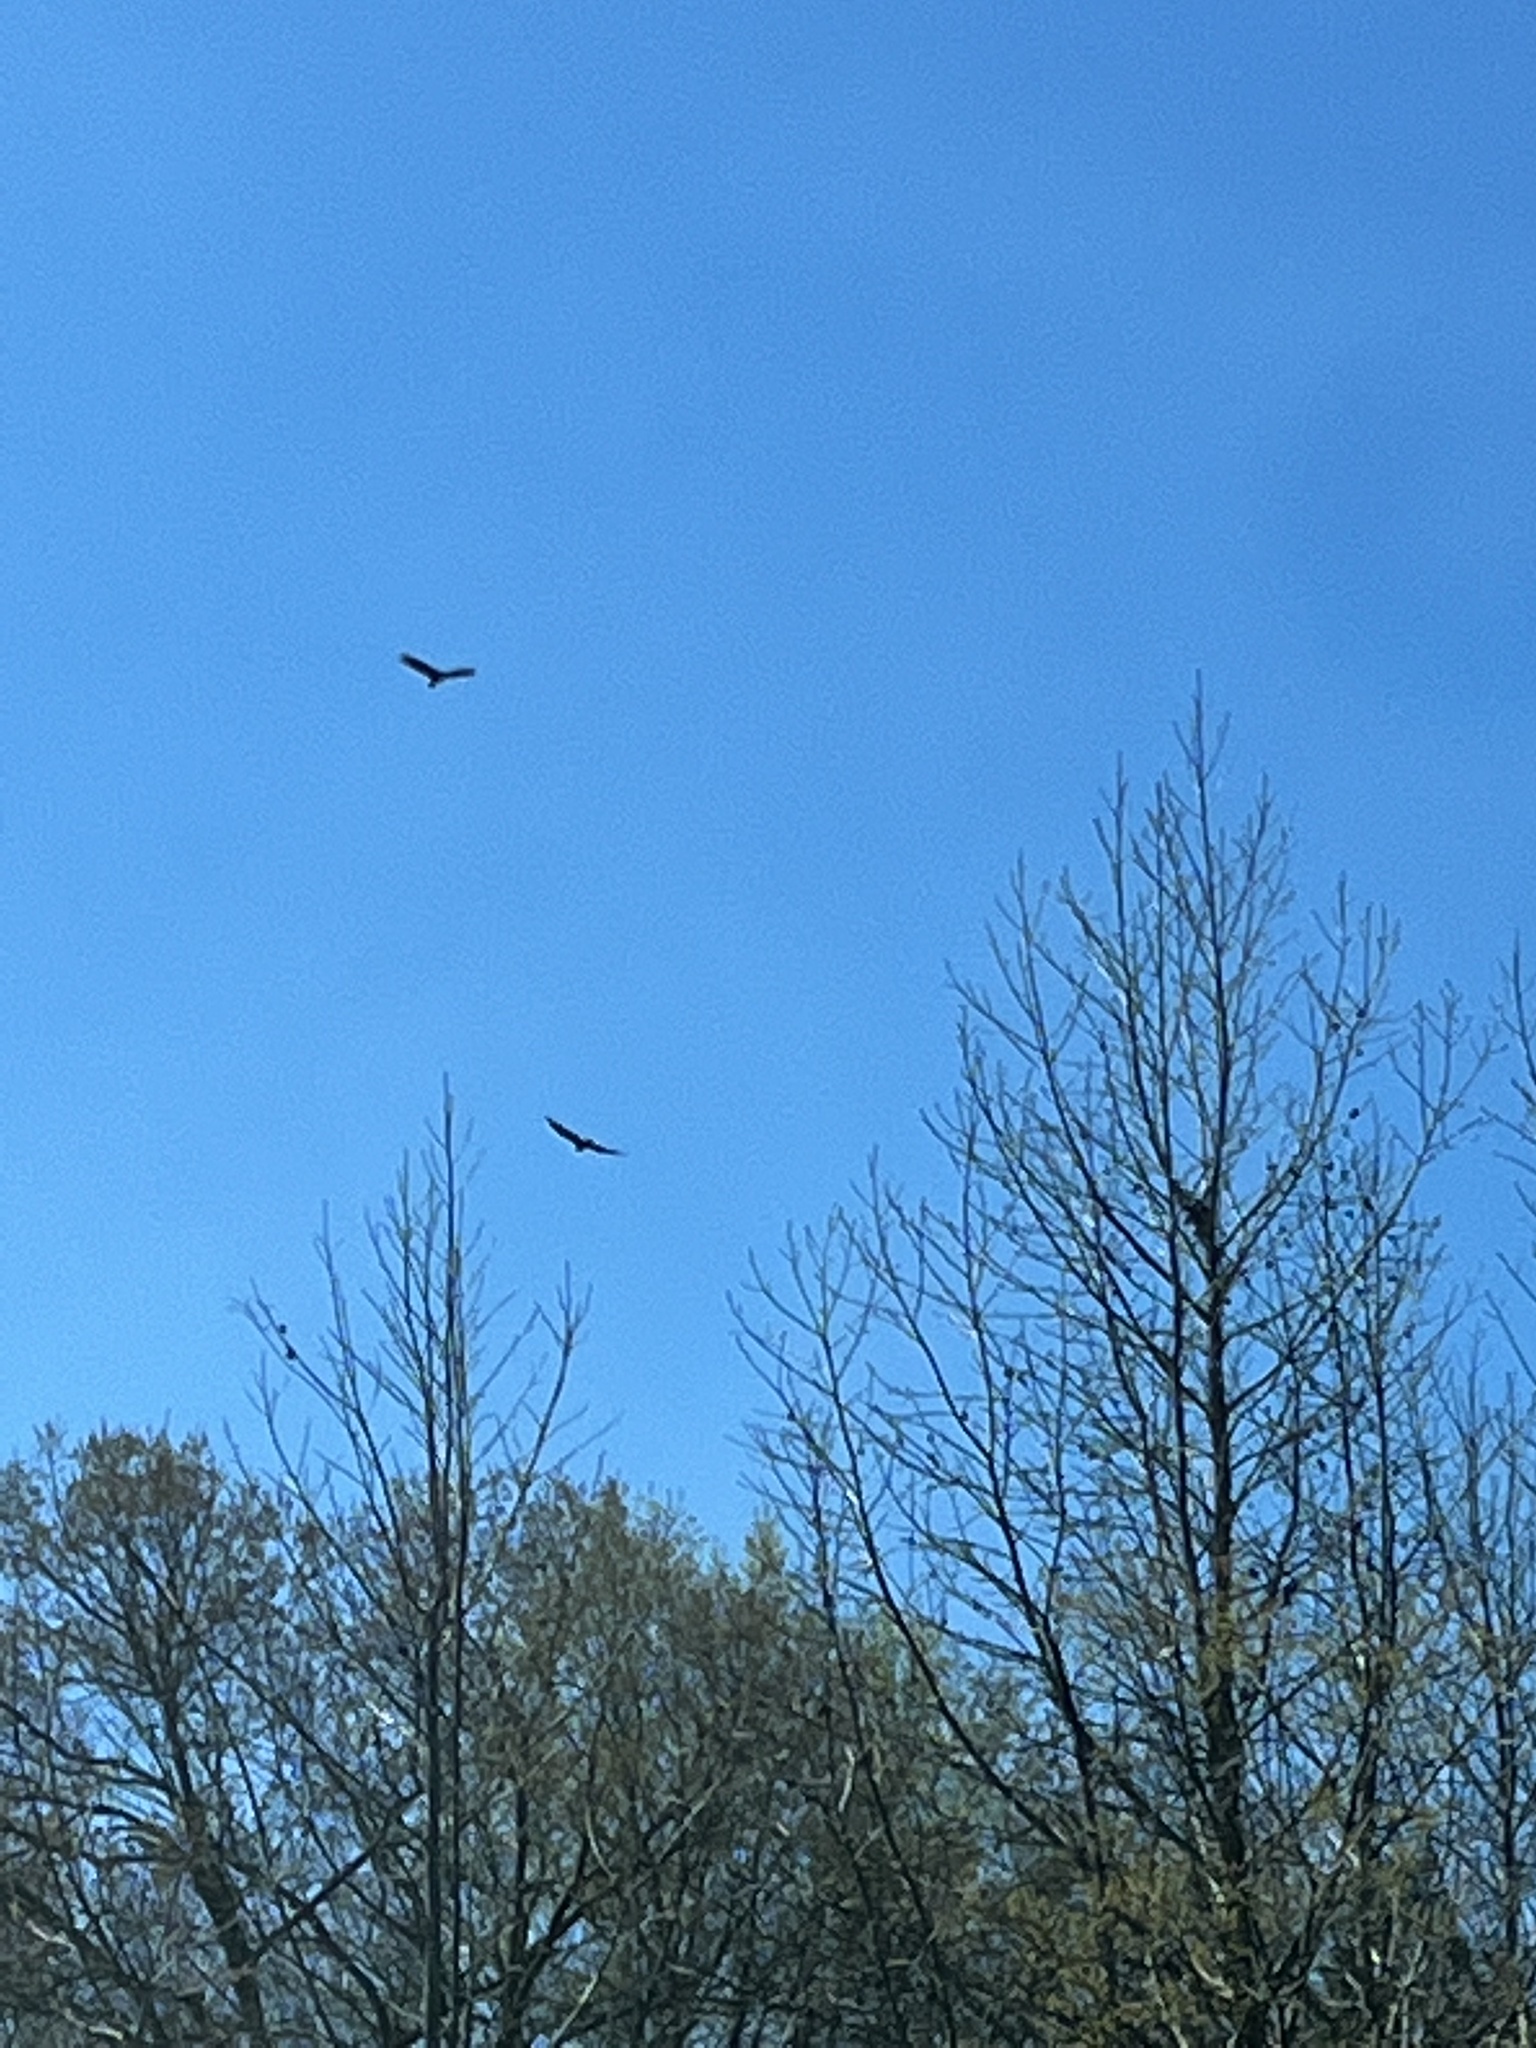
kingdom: Animalia
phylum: Chordata
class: Aves
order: Accipitriformes
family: Cathartidae
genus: Cathartes
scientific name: Cathartes aura
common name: Turkey vulture
